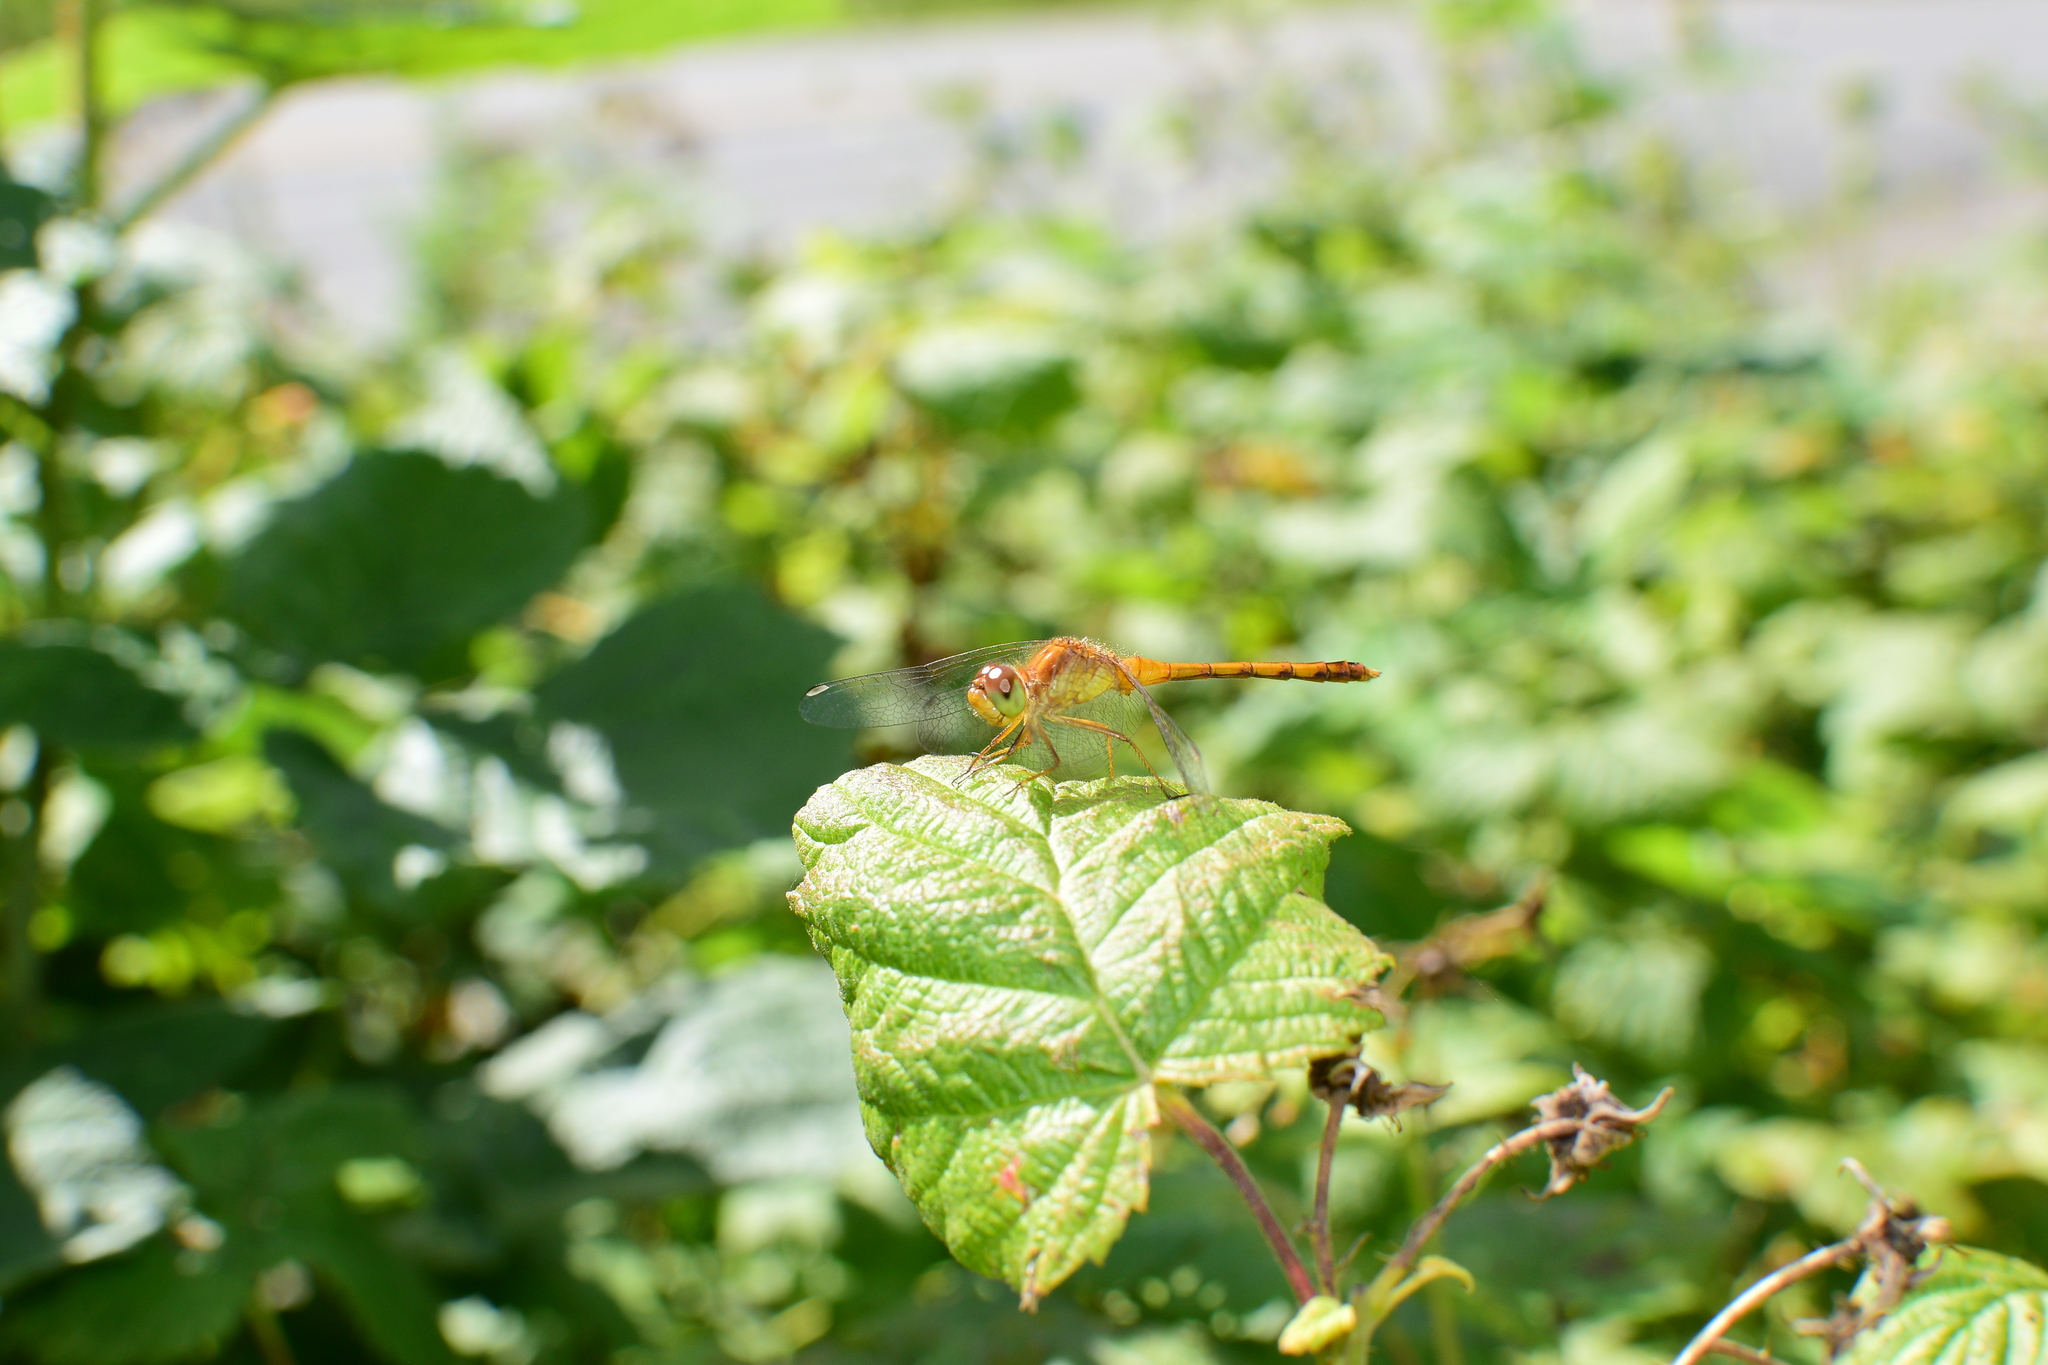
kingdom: Animalia
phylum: Arthropoda
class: Insecta
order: Odonata
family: Libellulidae
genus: Sympetrum
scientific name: Sympetrum vicinum
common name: Autumn meadowhawk
